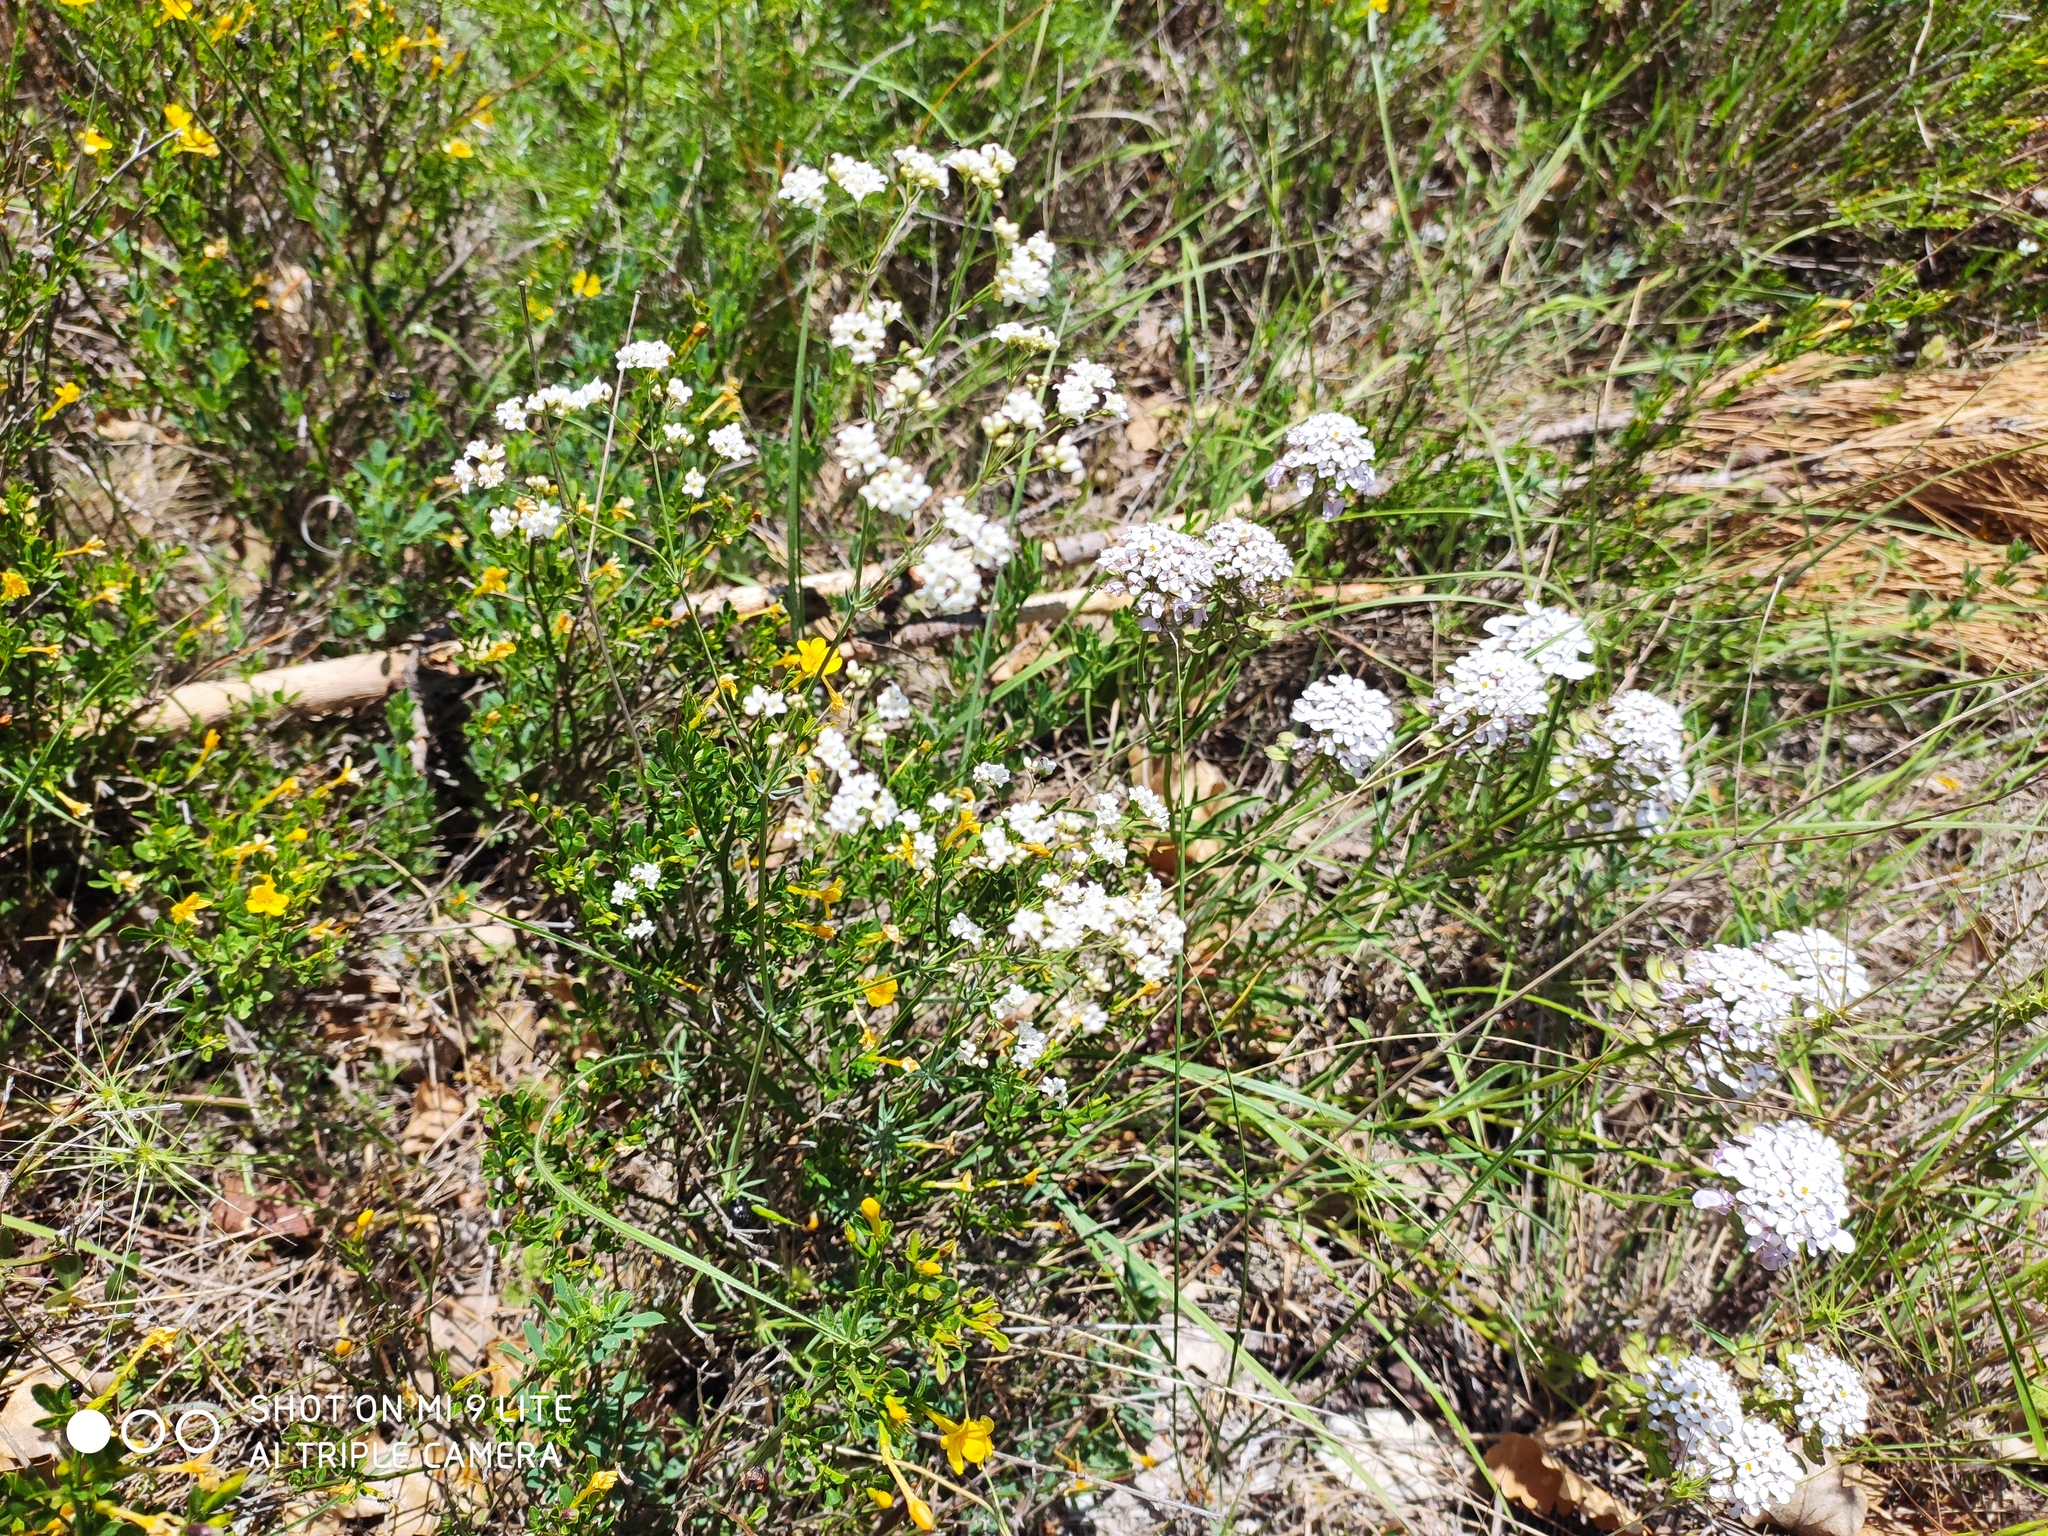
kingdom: Plantae
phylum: Tracheophyta
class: Magnoliopsida
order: Brassicales
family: Brassicaceae
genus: Iberis
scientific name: Iberis simplex
